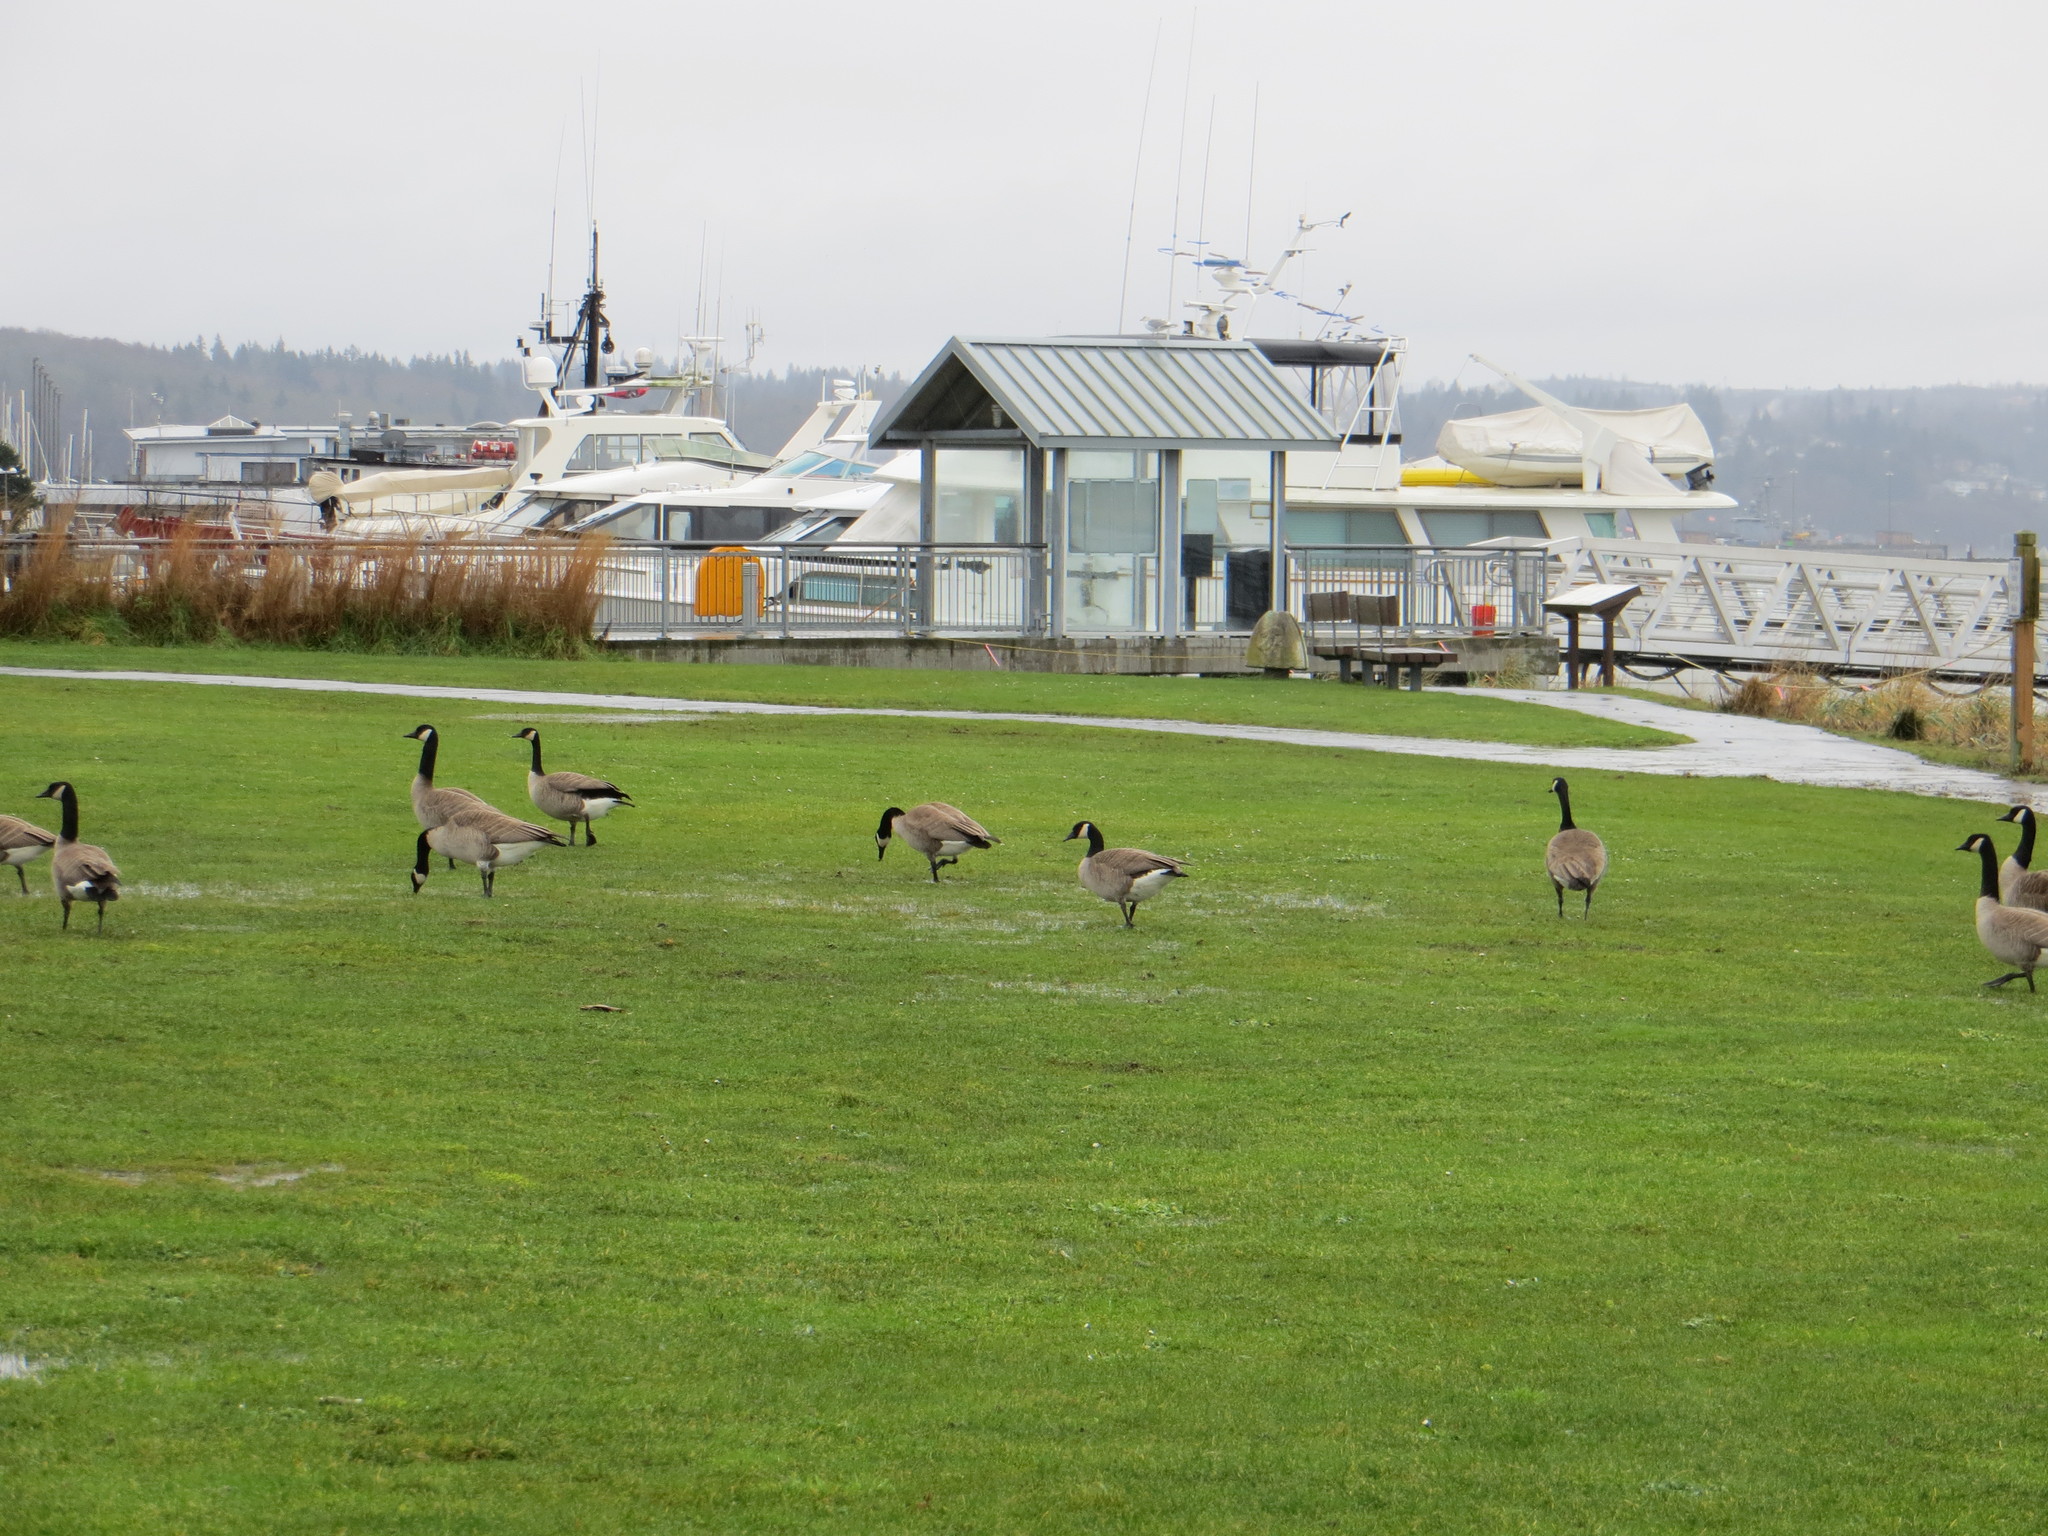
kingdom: Animalia
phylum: Chordata
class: Aves
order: Anseriformes
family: Anatidae
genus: Branta
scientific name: Branta canadensis
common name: Canada goose
